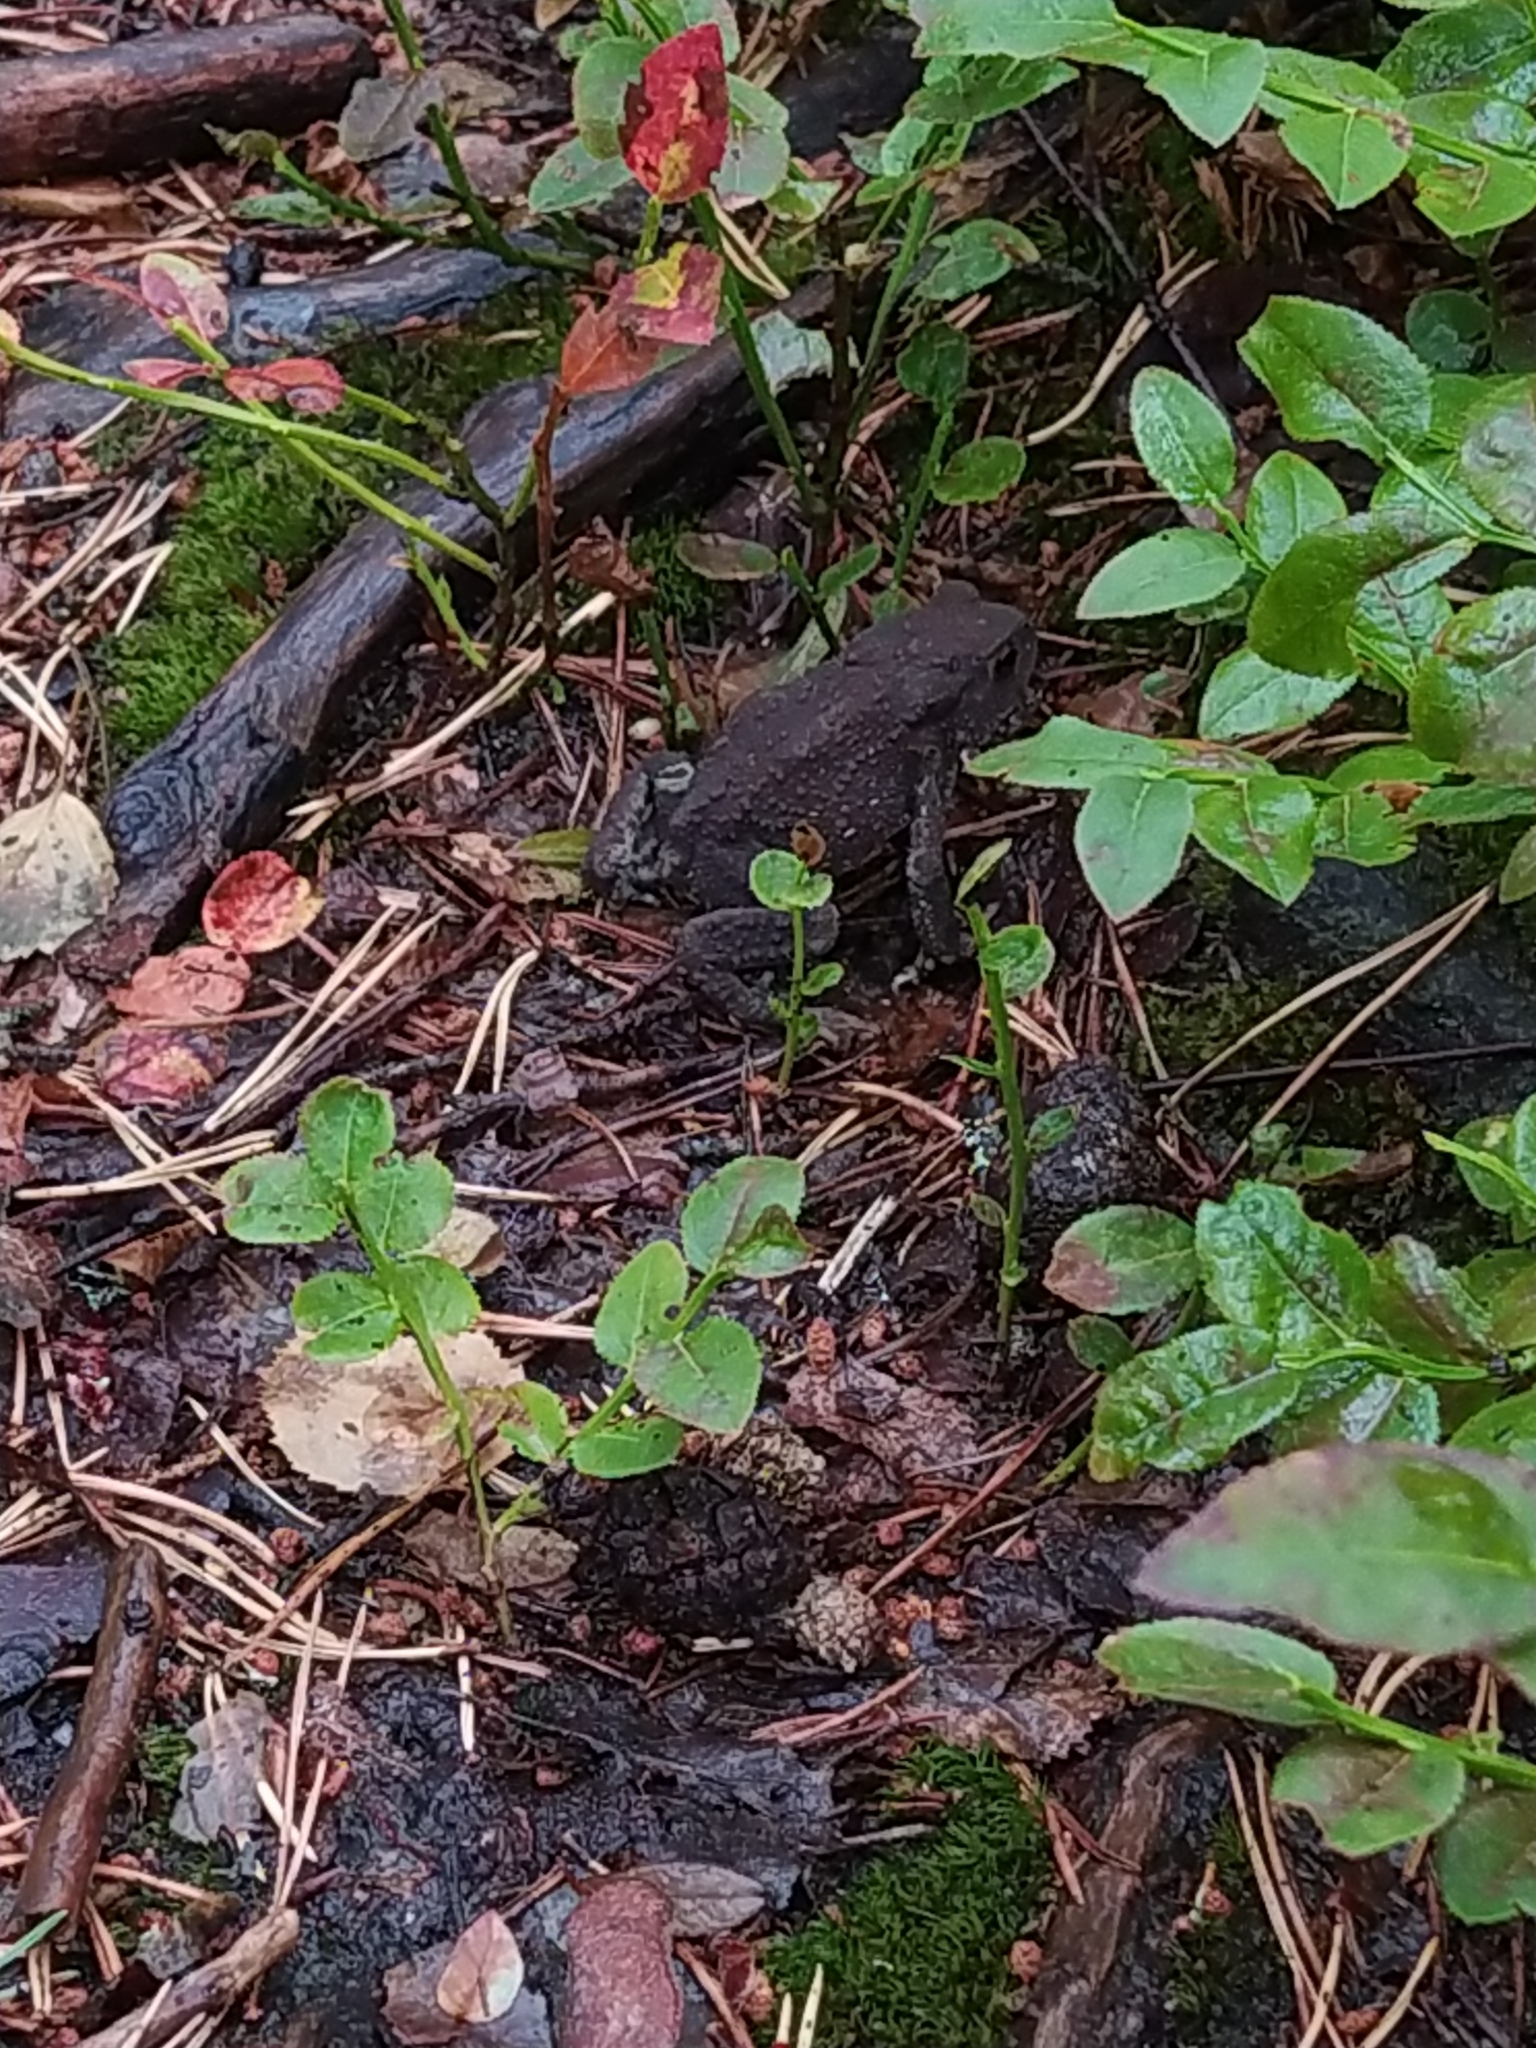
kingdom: Animalia
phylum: Chordata
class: Amphibia
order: Anura
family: Bufonidae
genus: Bufo
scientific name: Bufo bufo
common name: Common toad
